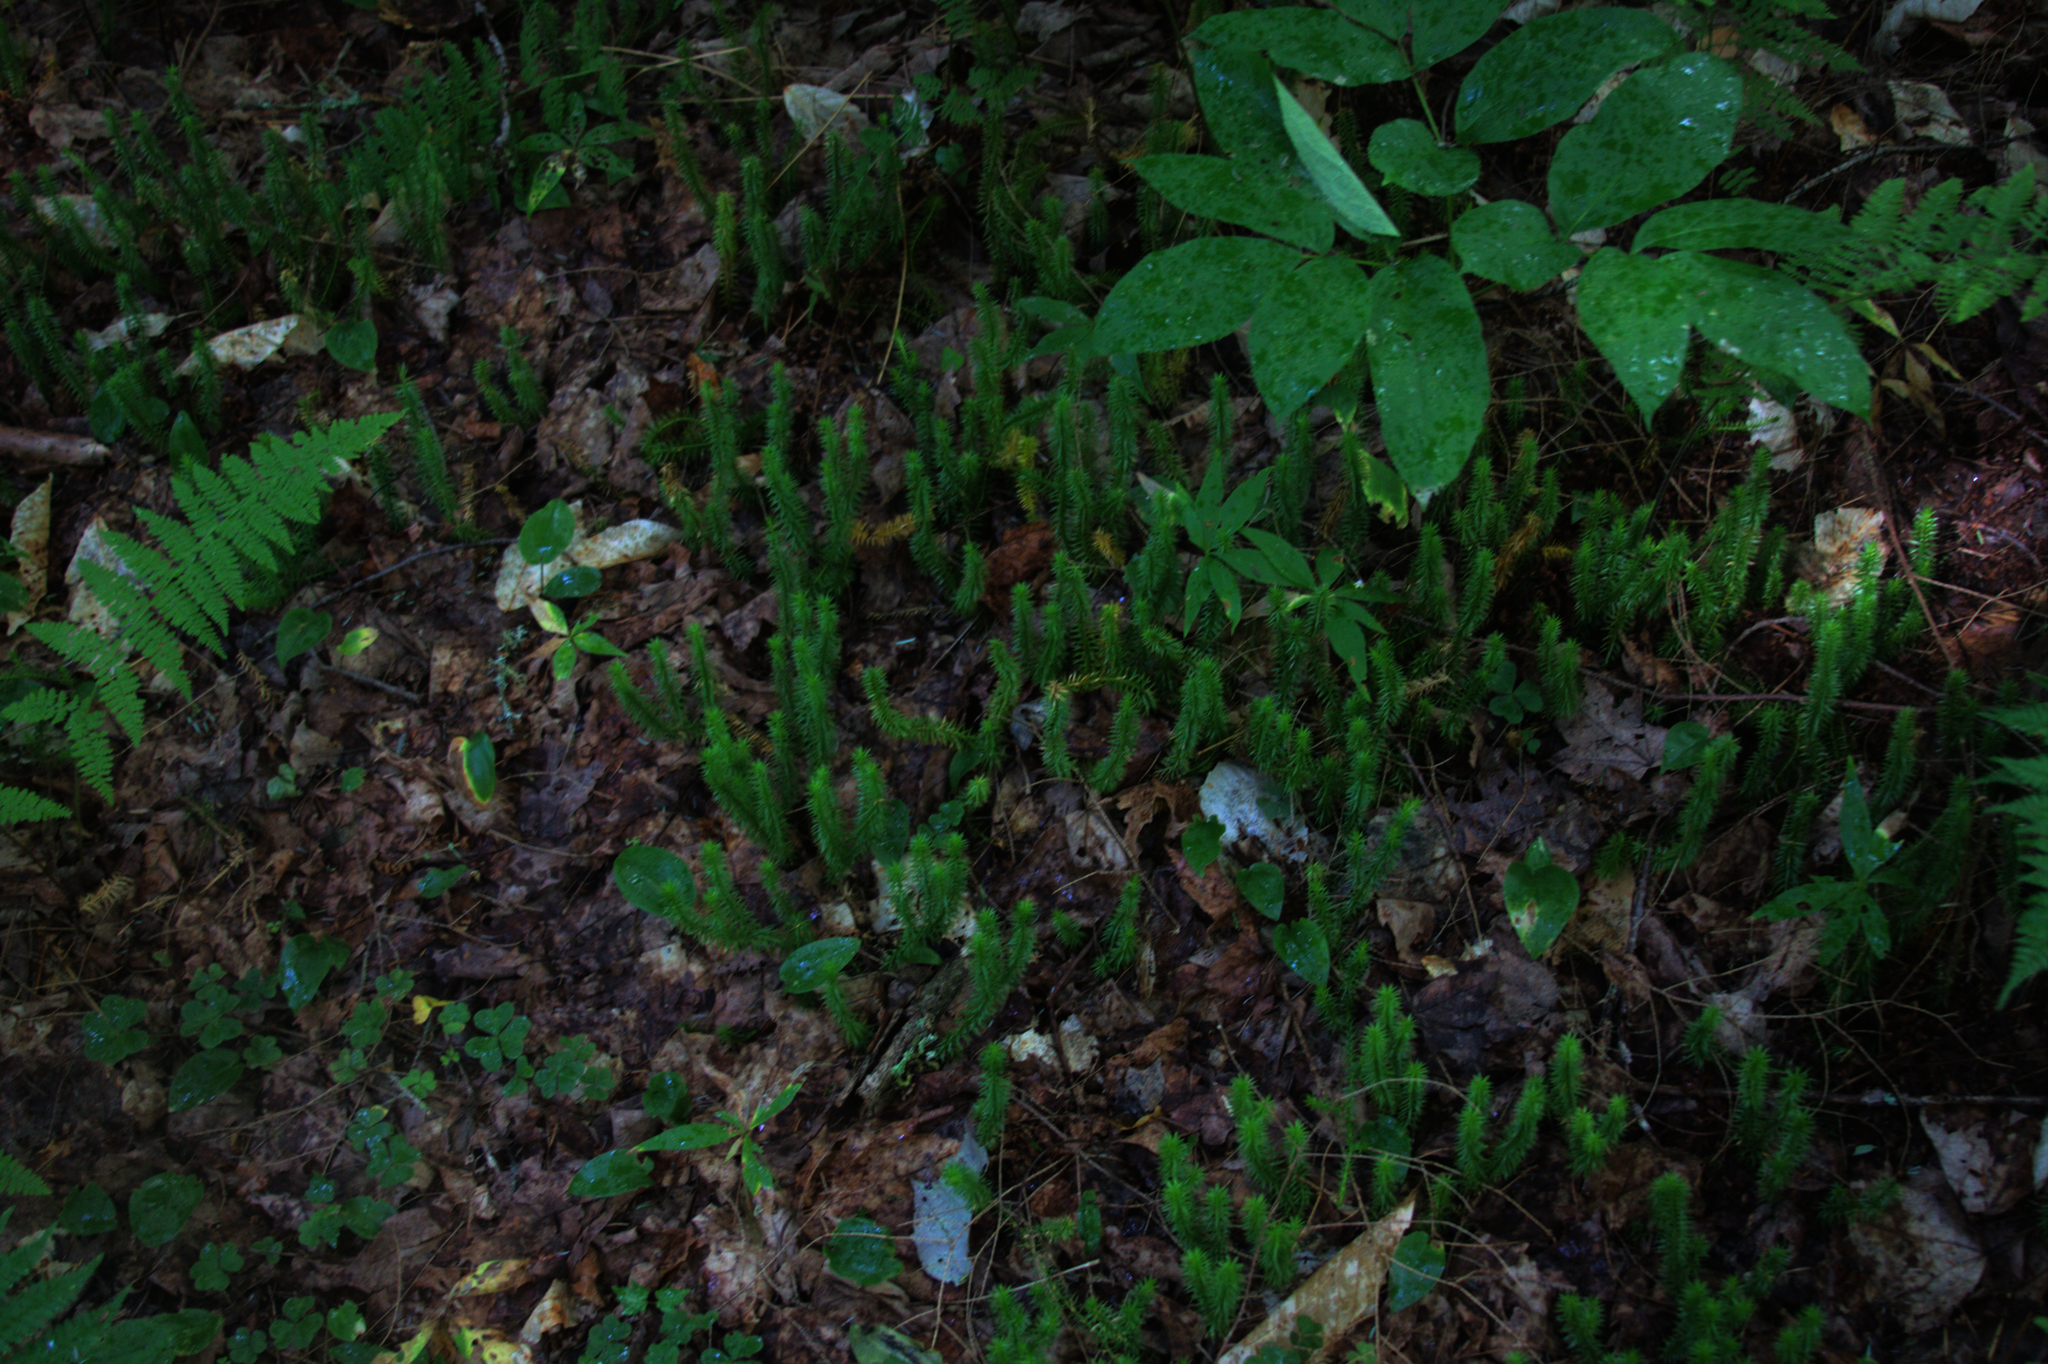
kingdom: Plantae
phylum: Tracheophyta
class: Magnoliopsida
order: Apiales
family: Araliaceae
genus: Aralia
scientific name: Aralia nudicaulis
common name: Wild sarsaparilla
